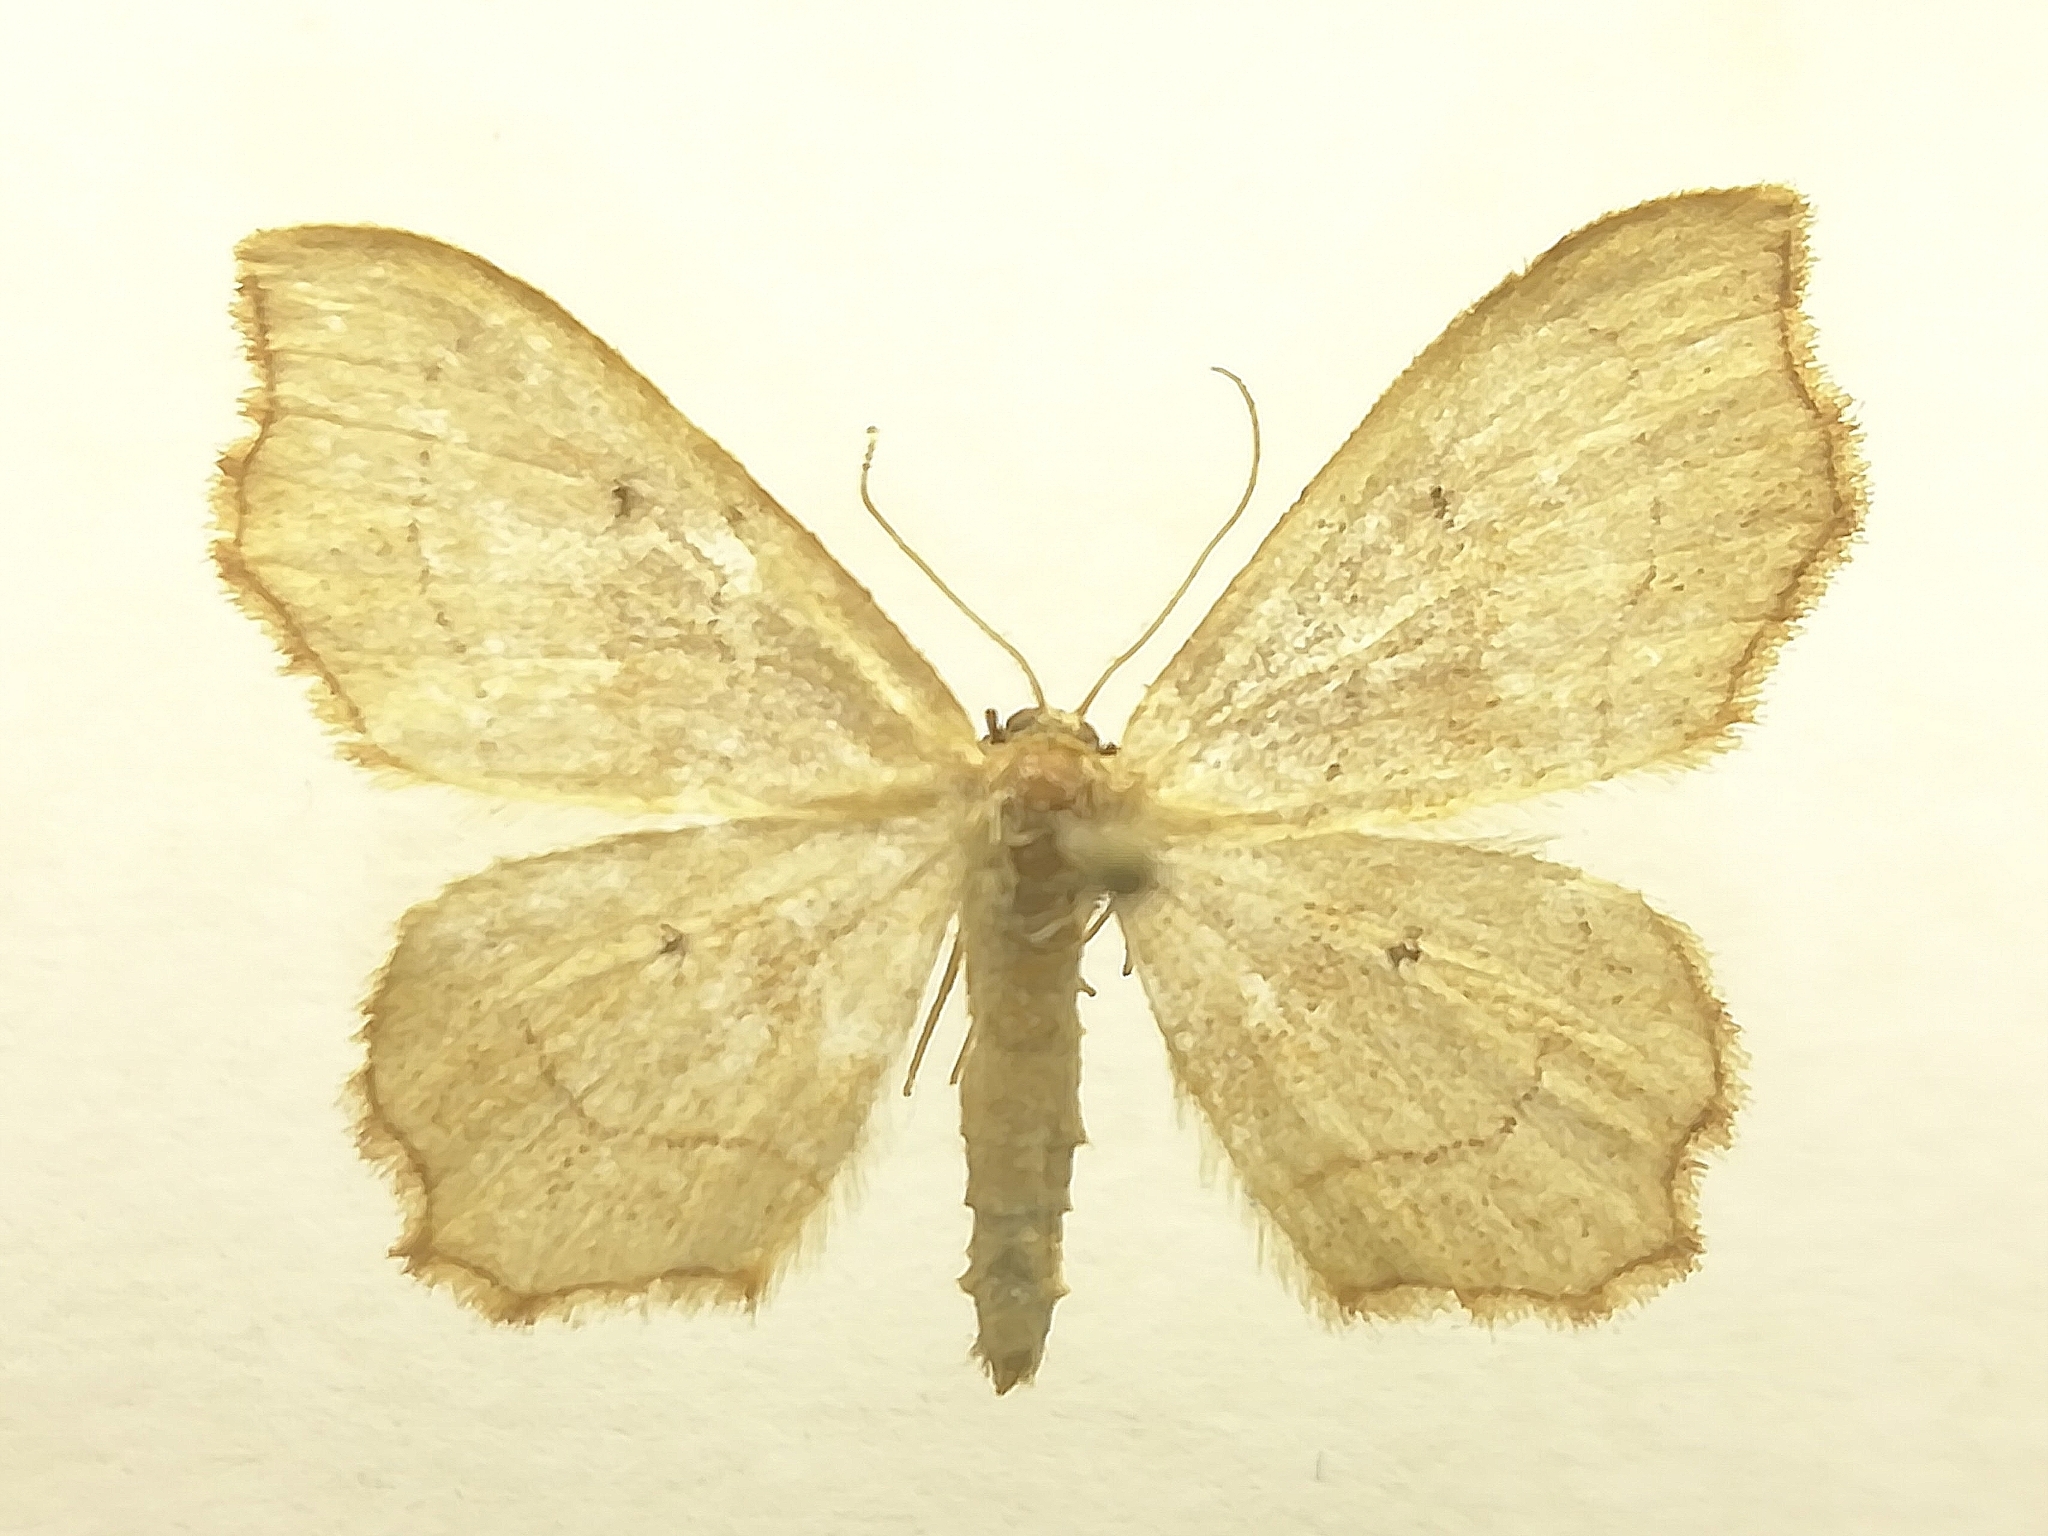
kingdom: Animalia
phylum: Arthropoda
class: Insecta
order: Lepidoptera
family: Geometridae
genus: Idaea
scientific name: Idaea emarginata
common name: Small scallop
